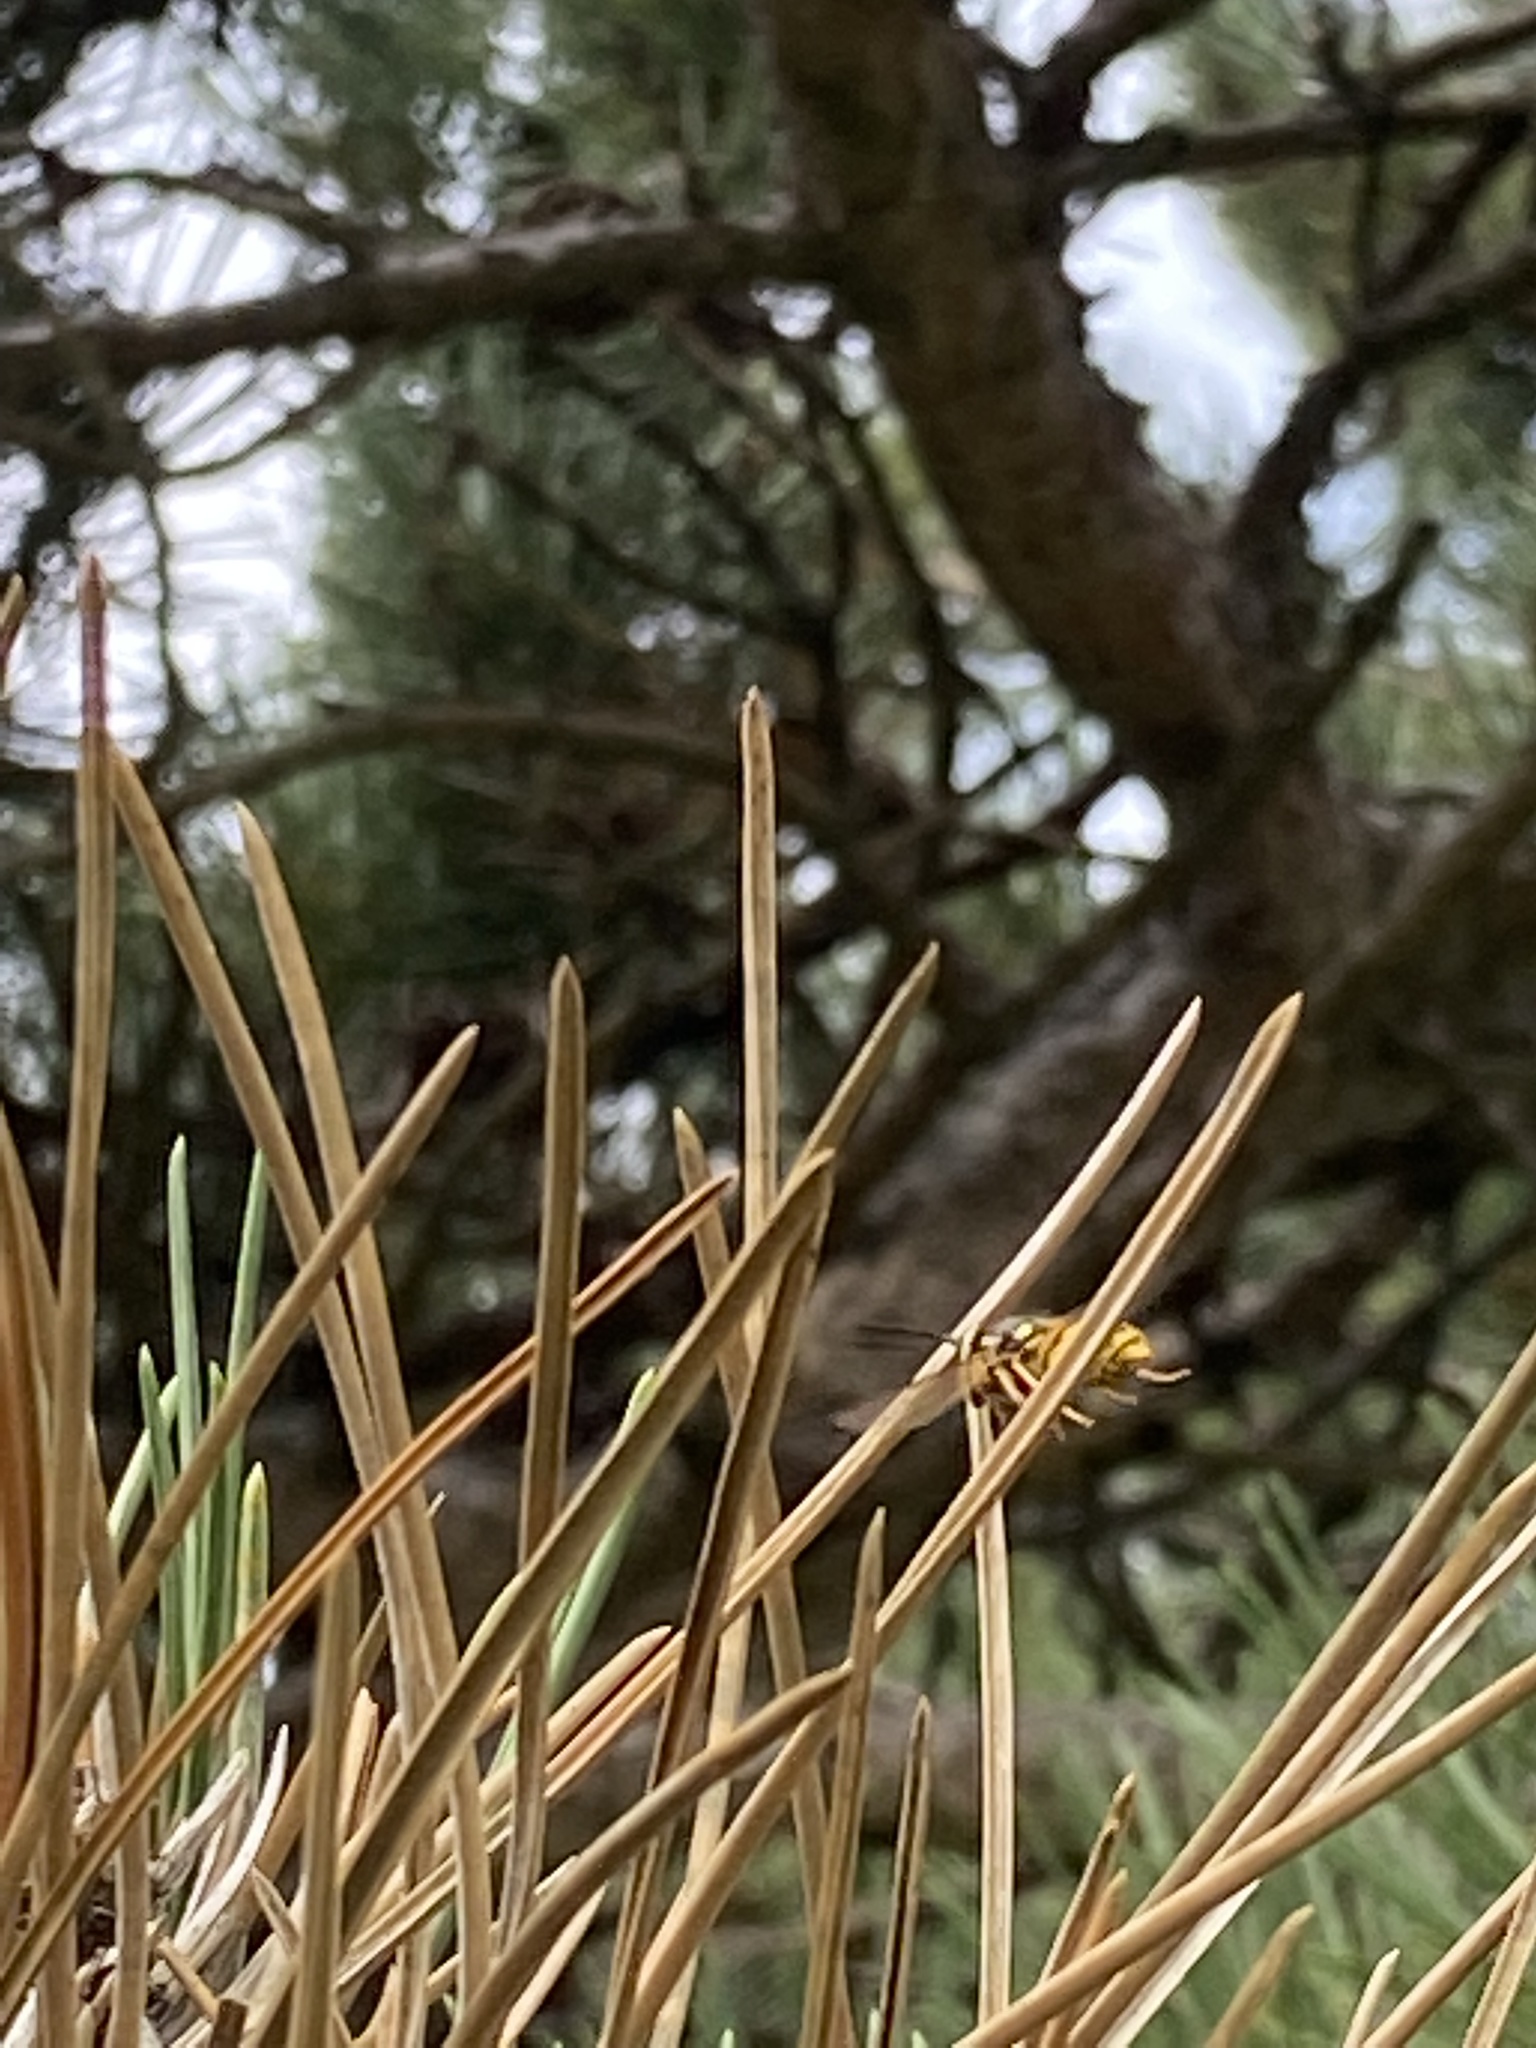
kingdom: Animalia
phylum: Arthropoda
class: Insecta
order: Hymenoptera
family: Vespidae
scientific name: Vespidae
